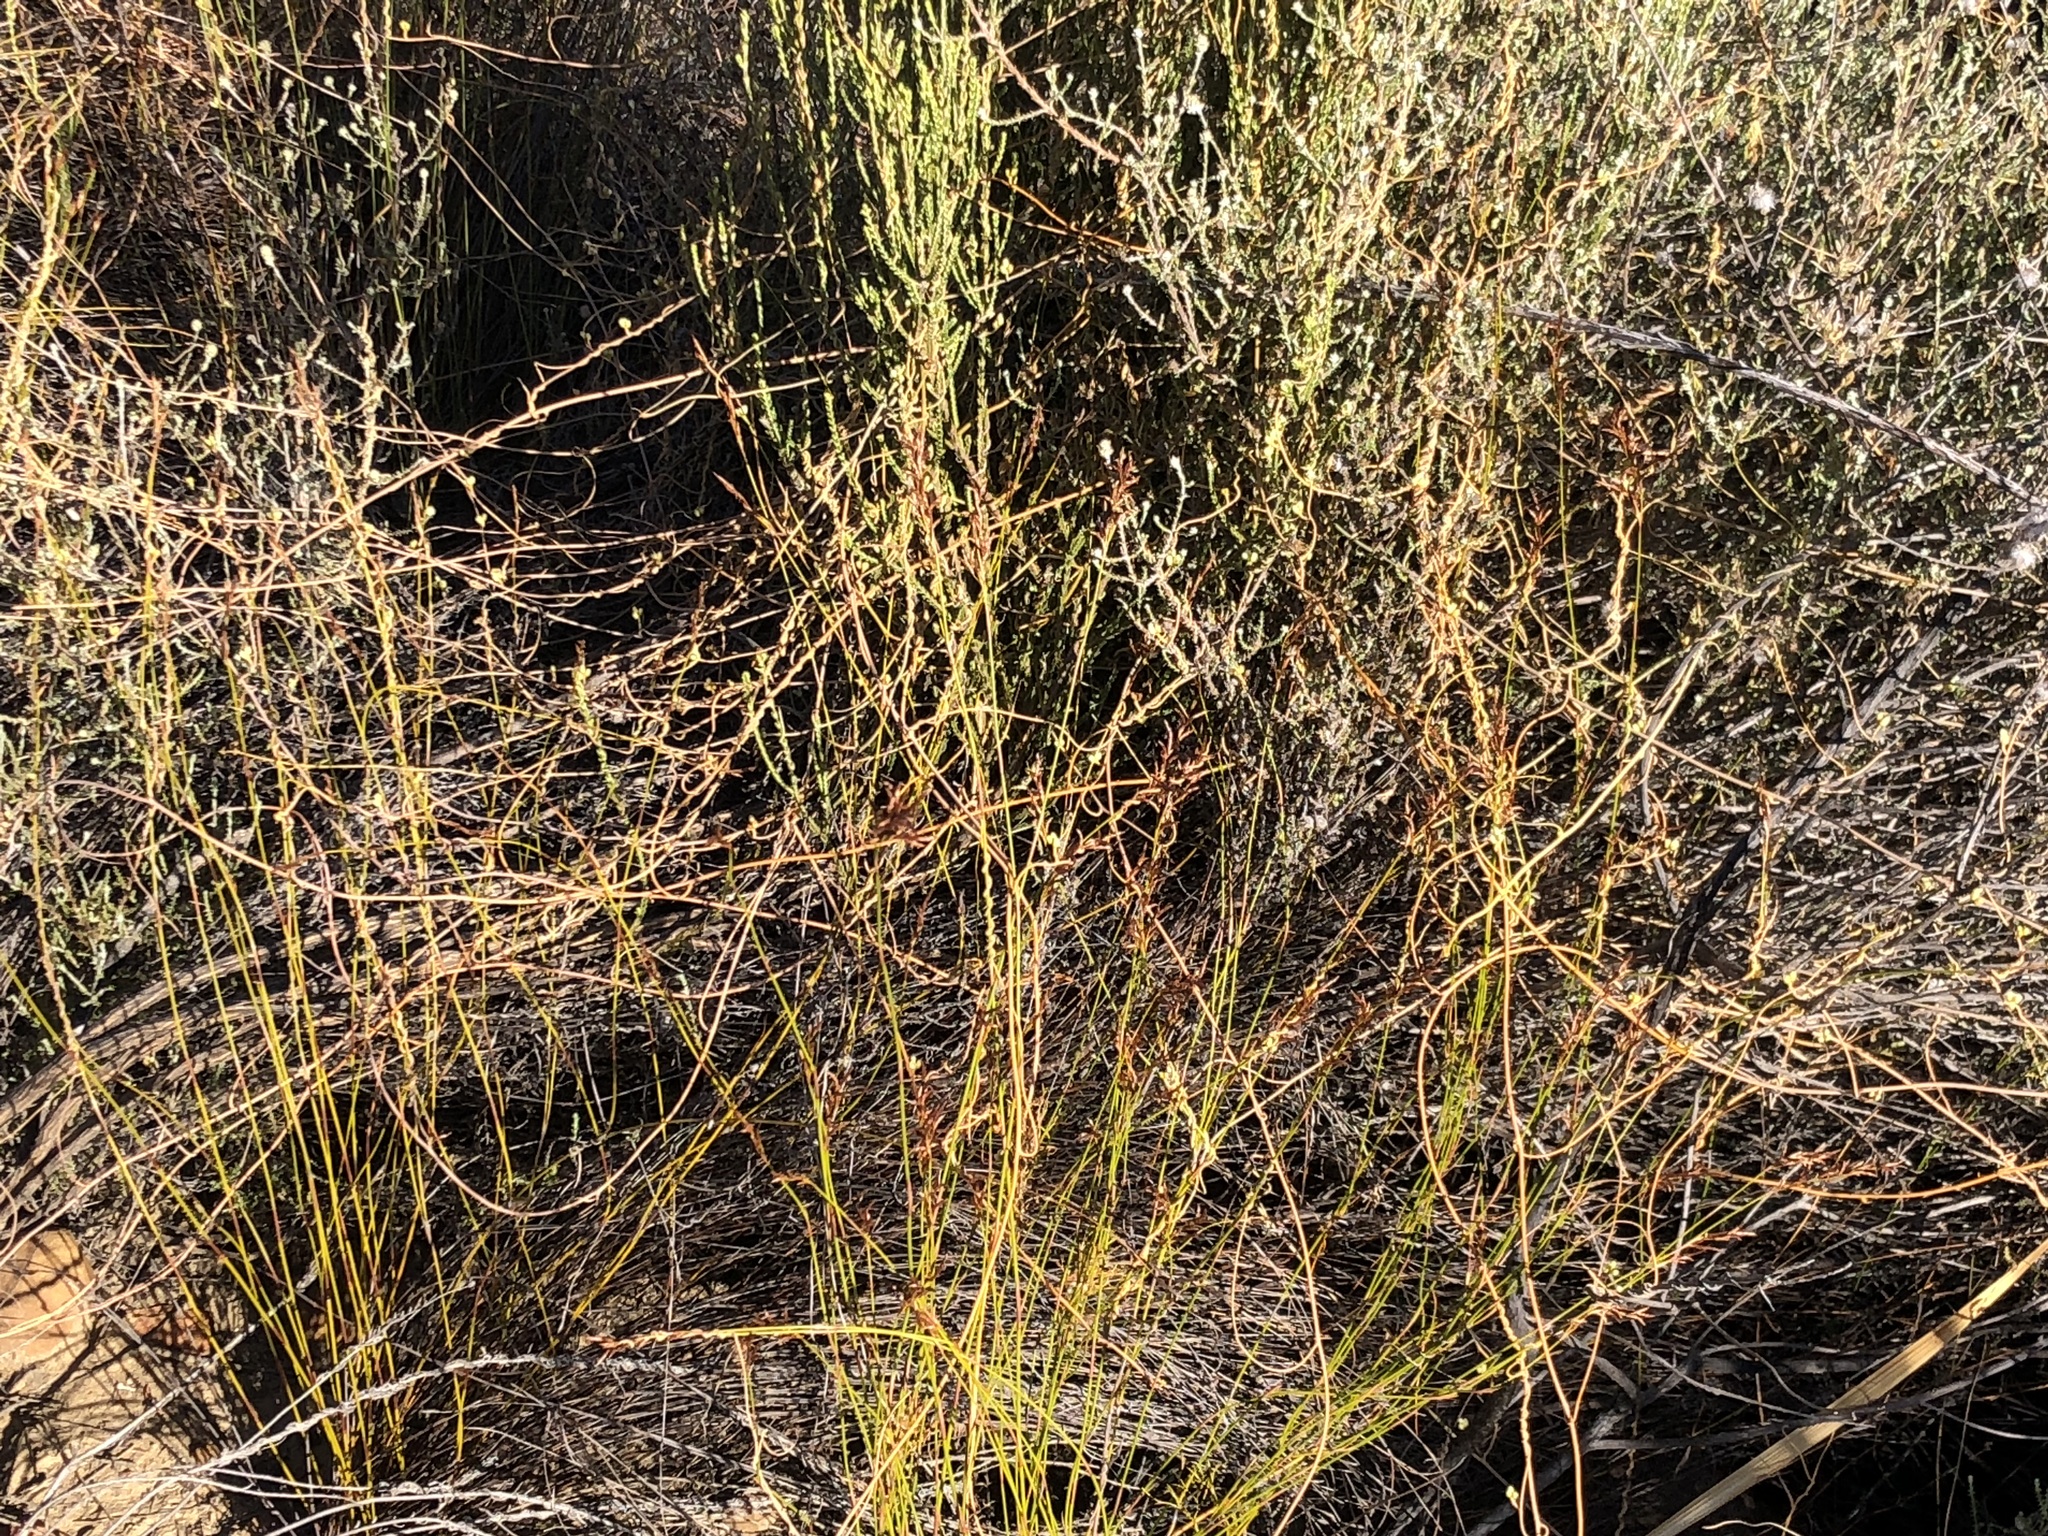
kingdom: Plantae
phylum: Tracheophyta
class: Magnoliopsida
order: Laurales
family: Lauraceae
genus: Cassytha
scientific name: Cassytha ciliolata
